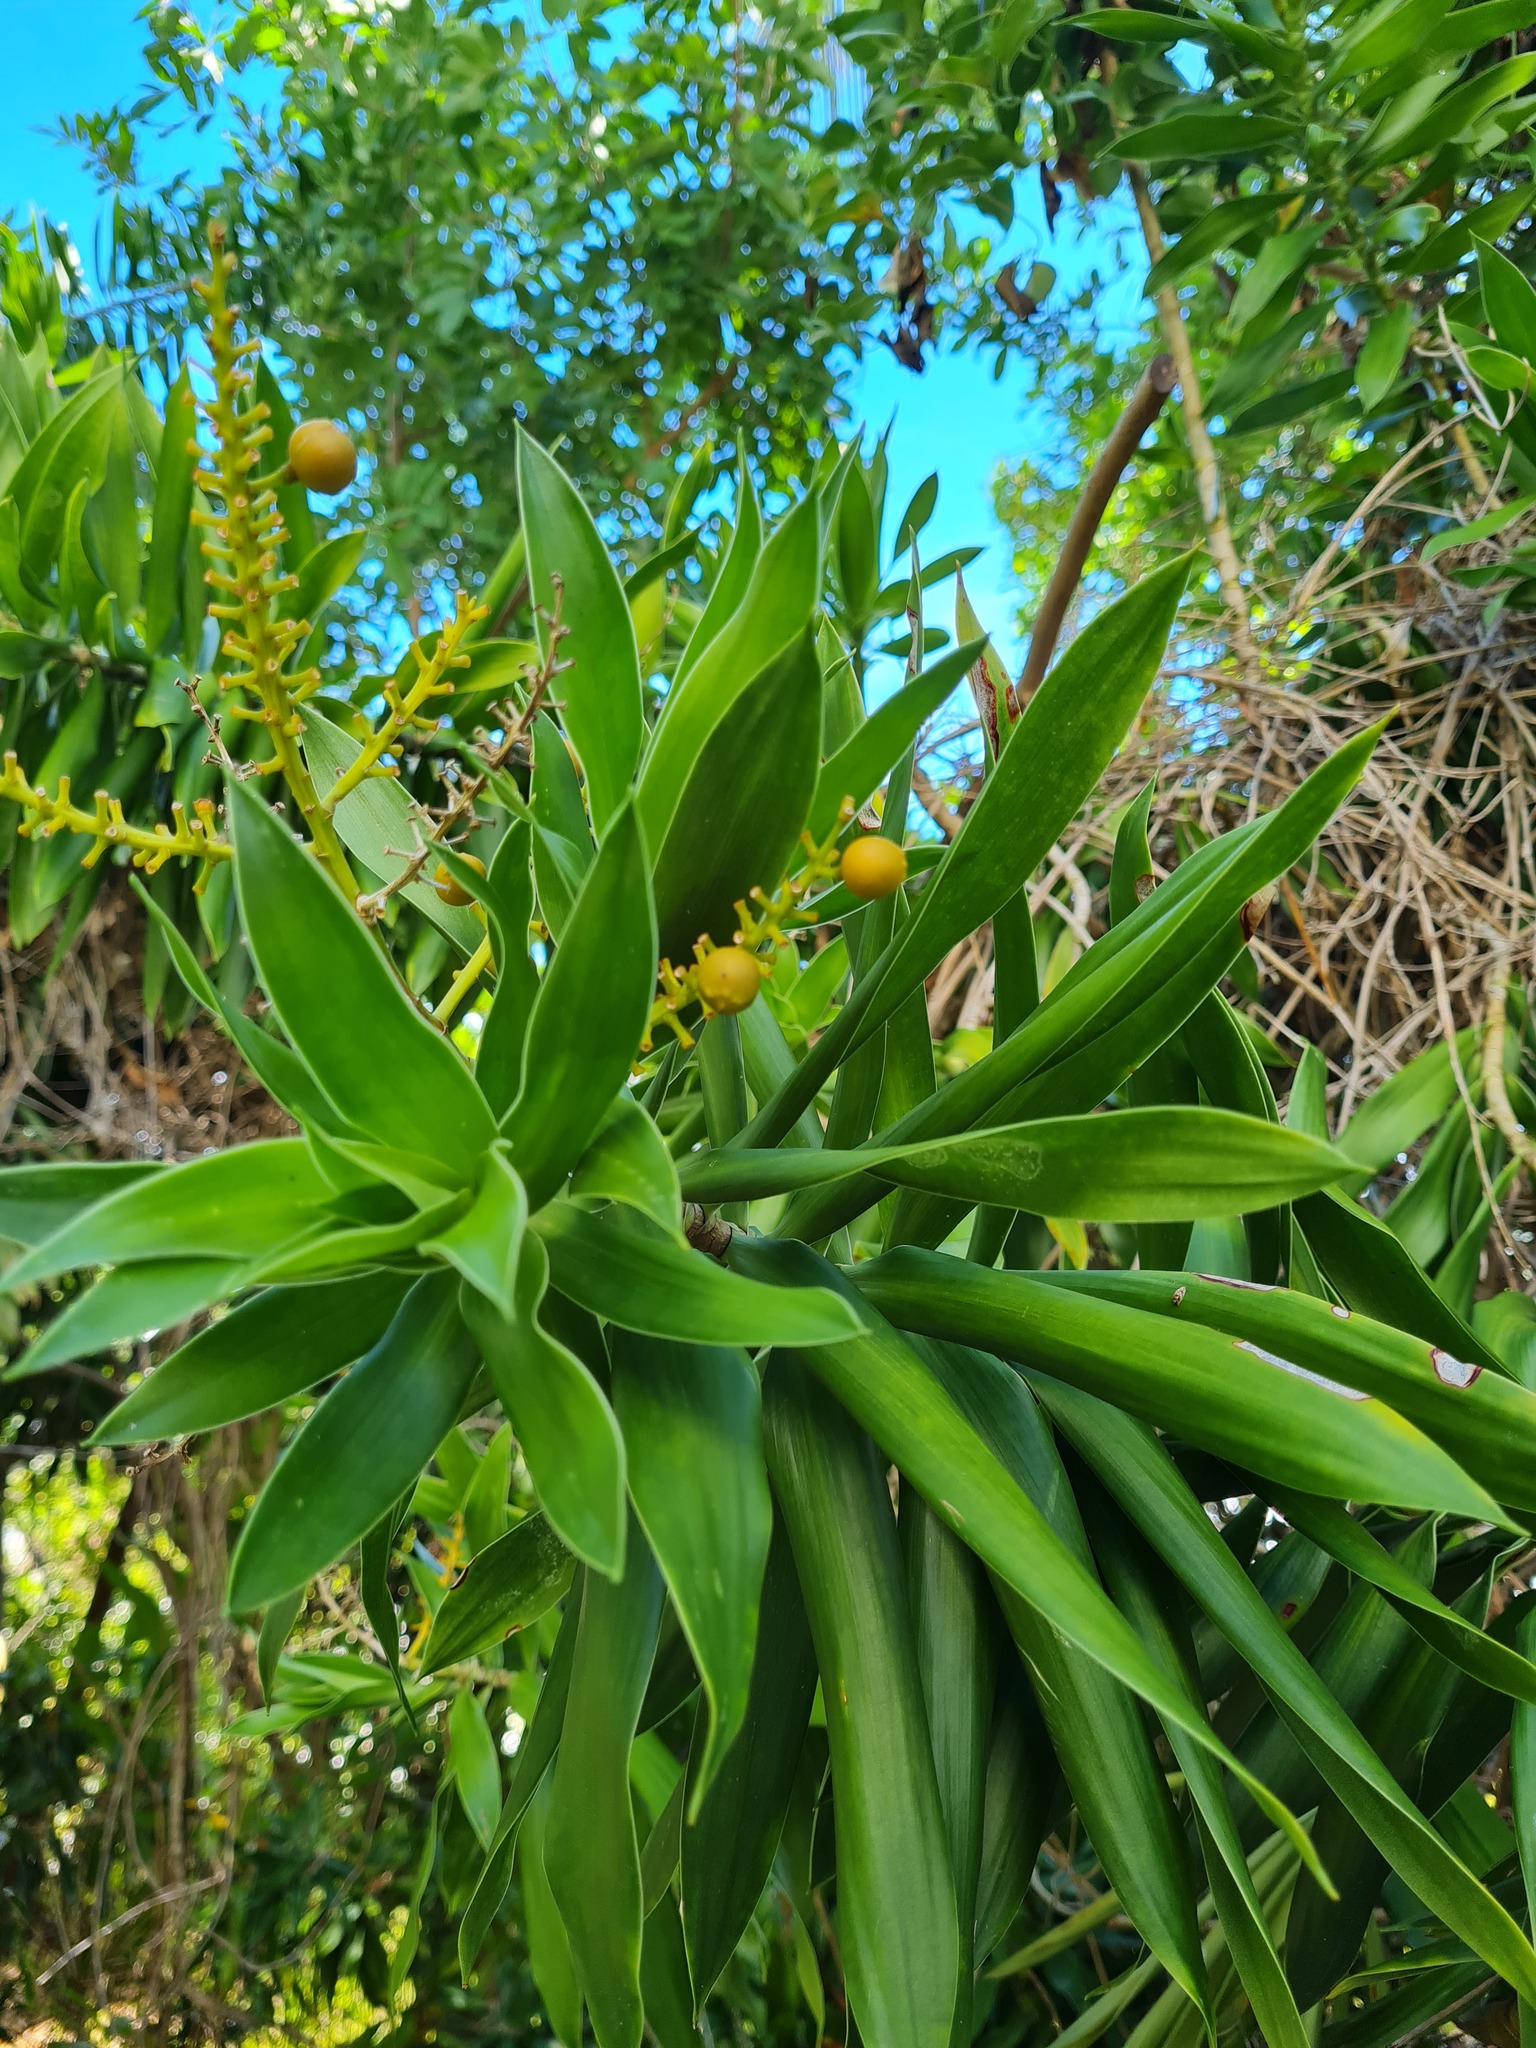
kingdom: Plantae
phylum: Tracheophyta
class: Liliopsida
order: Asparagales
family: Asparagaceae
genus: Dracaena
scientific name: Dracaena reflexa
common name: Song-of-india
